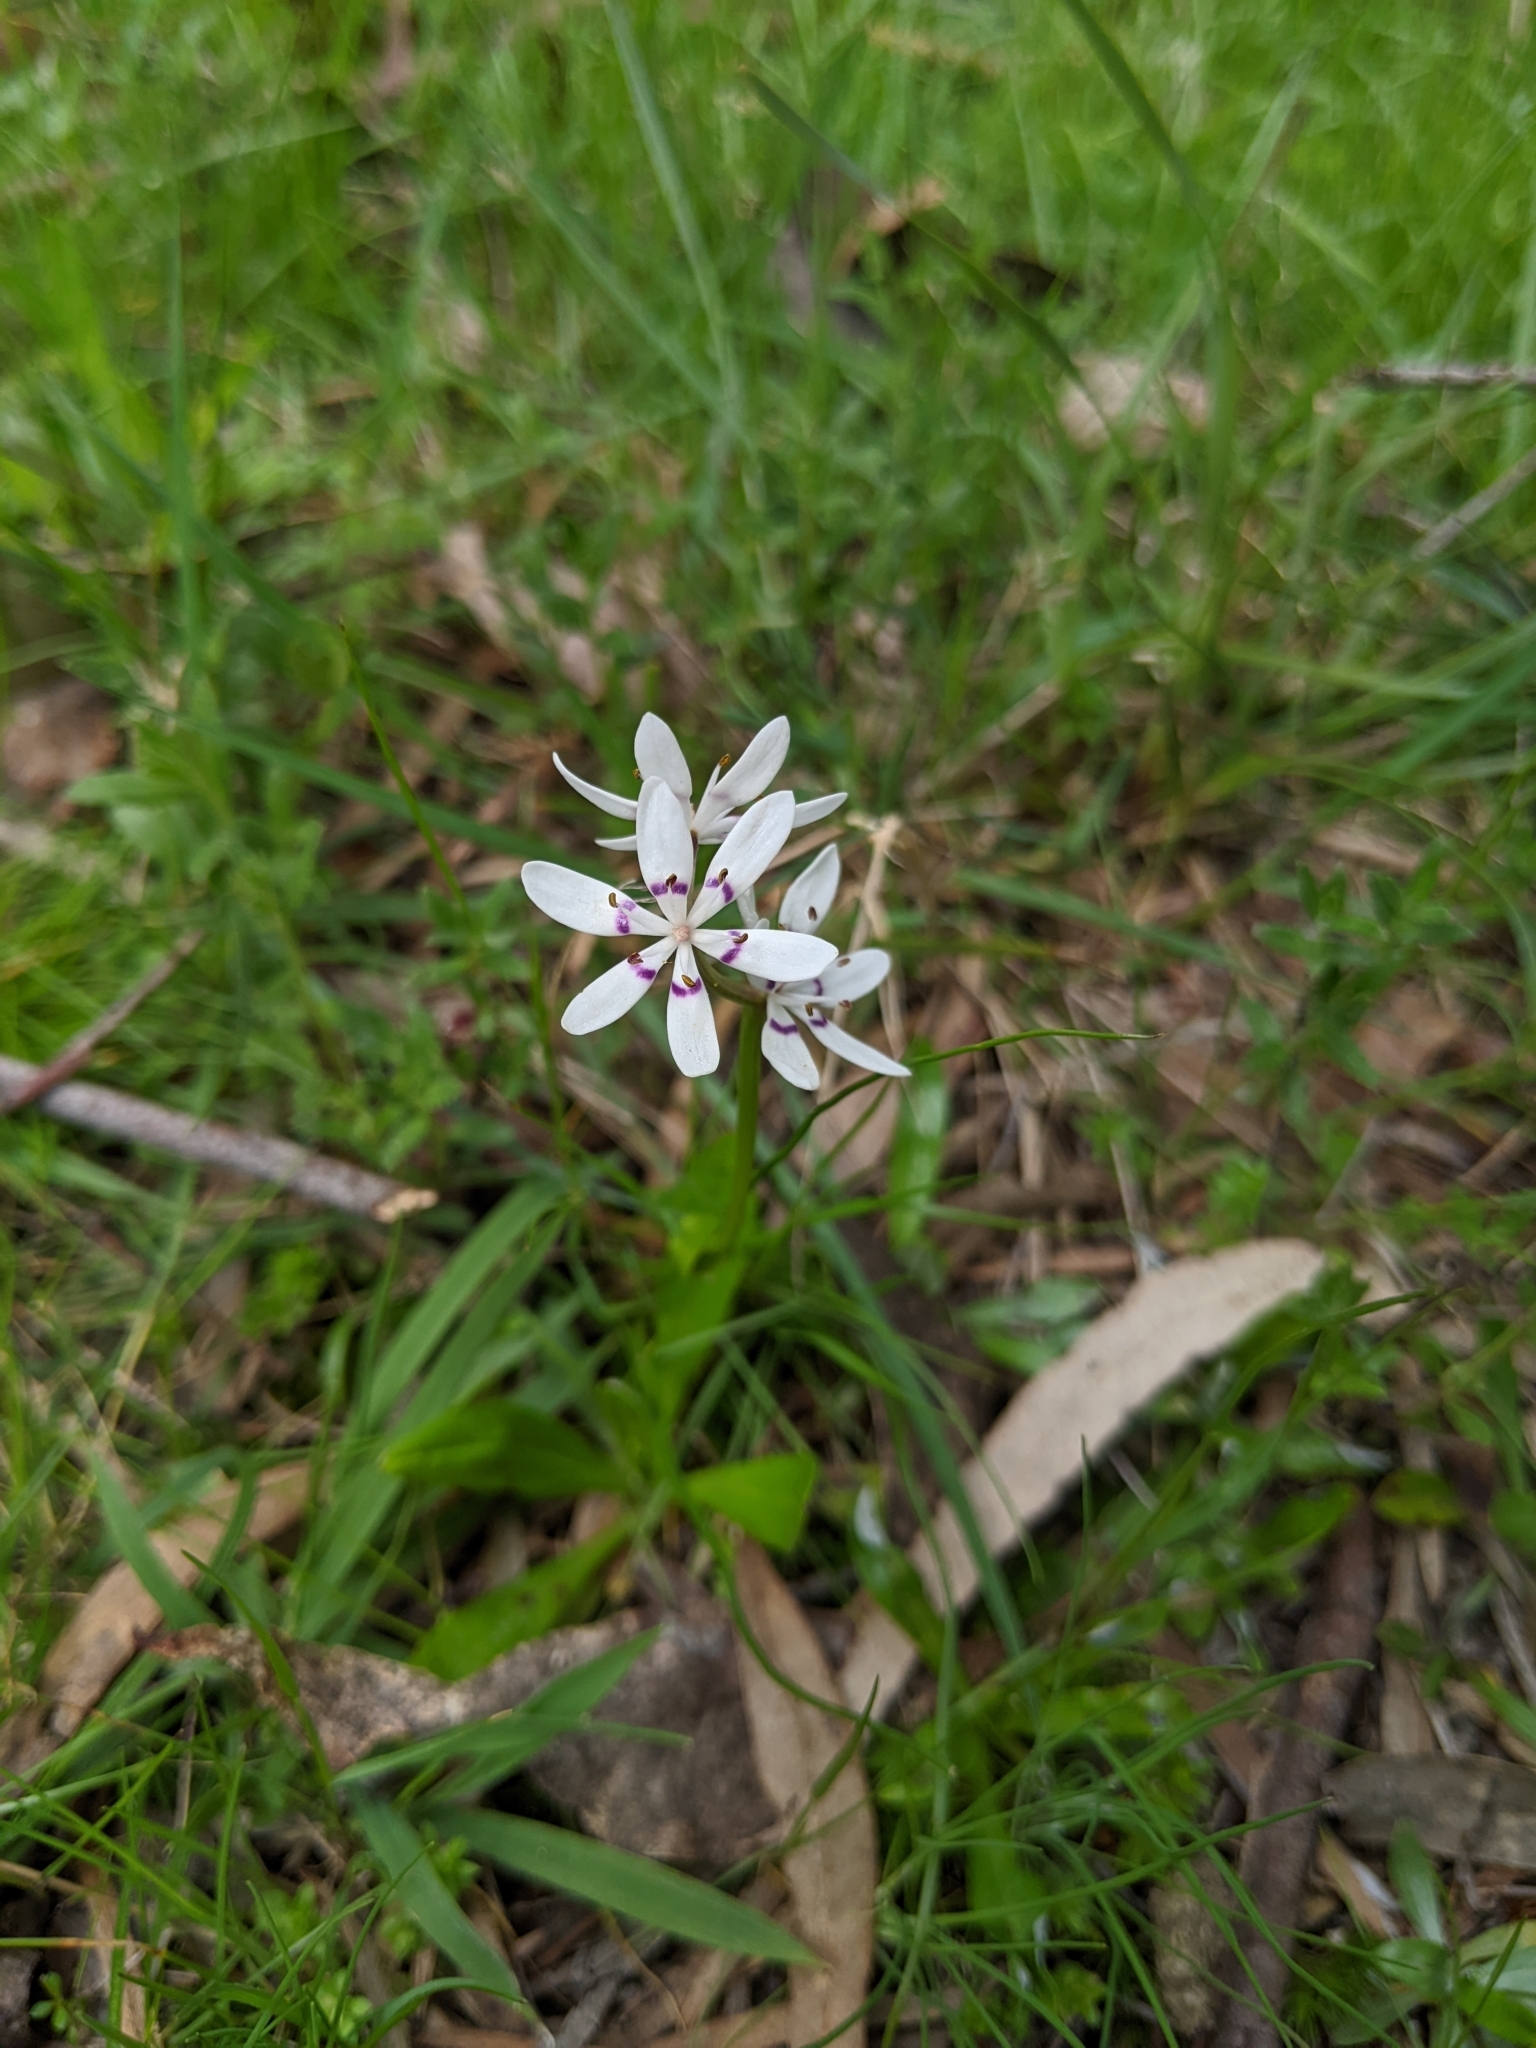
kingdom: Plantae
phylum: Tracheophyta
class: Liliopsida
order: Liliales
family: Colchicaceae
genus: Wurmbea
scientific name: Wurmbea dioica
